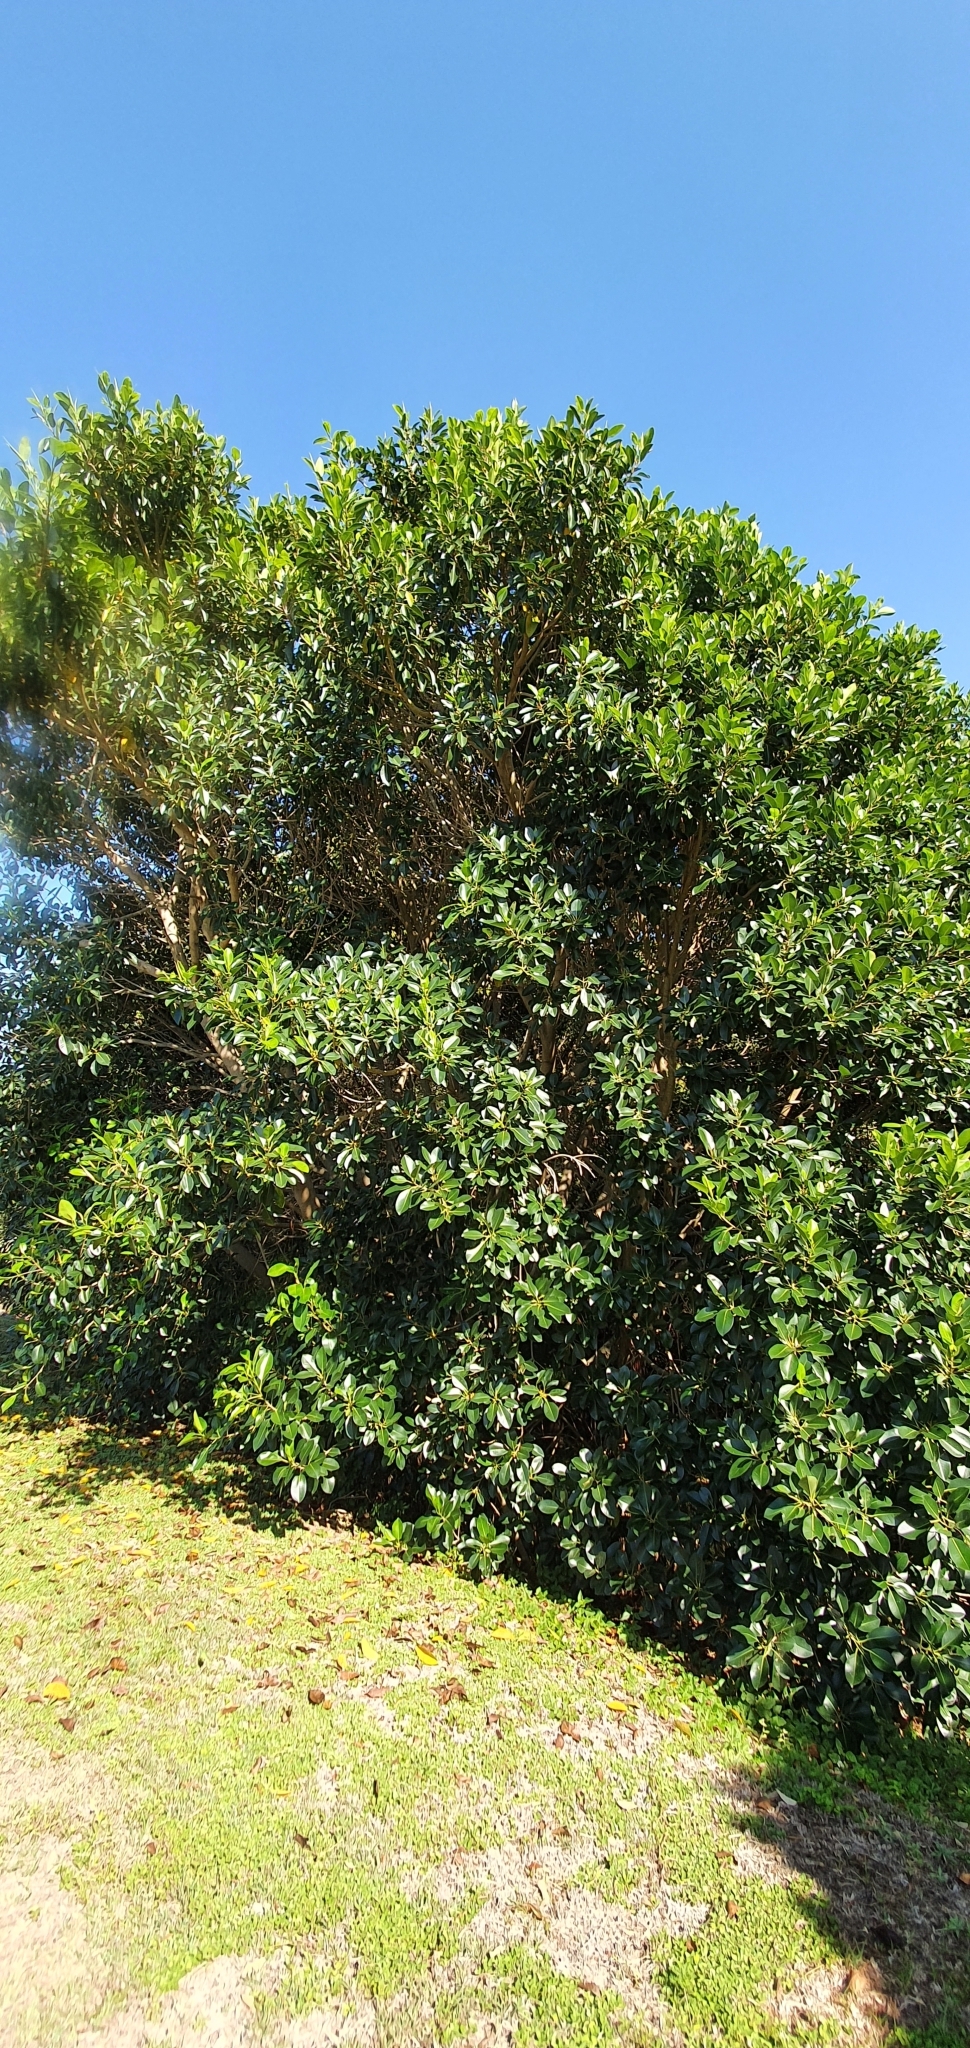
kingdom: Plantae
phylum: Tracheophyta
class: Magnoliopsida
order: Rosales
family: Moraceae
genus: Ficus
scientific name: Ficus rubiginosa
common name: Port jackson fig
